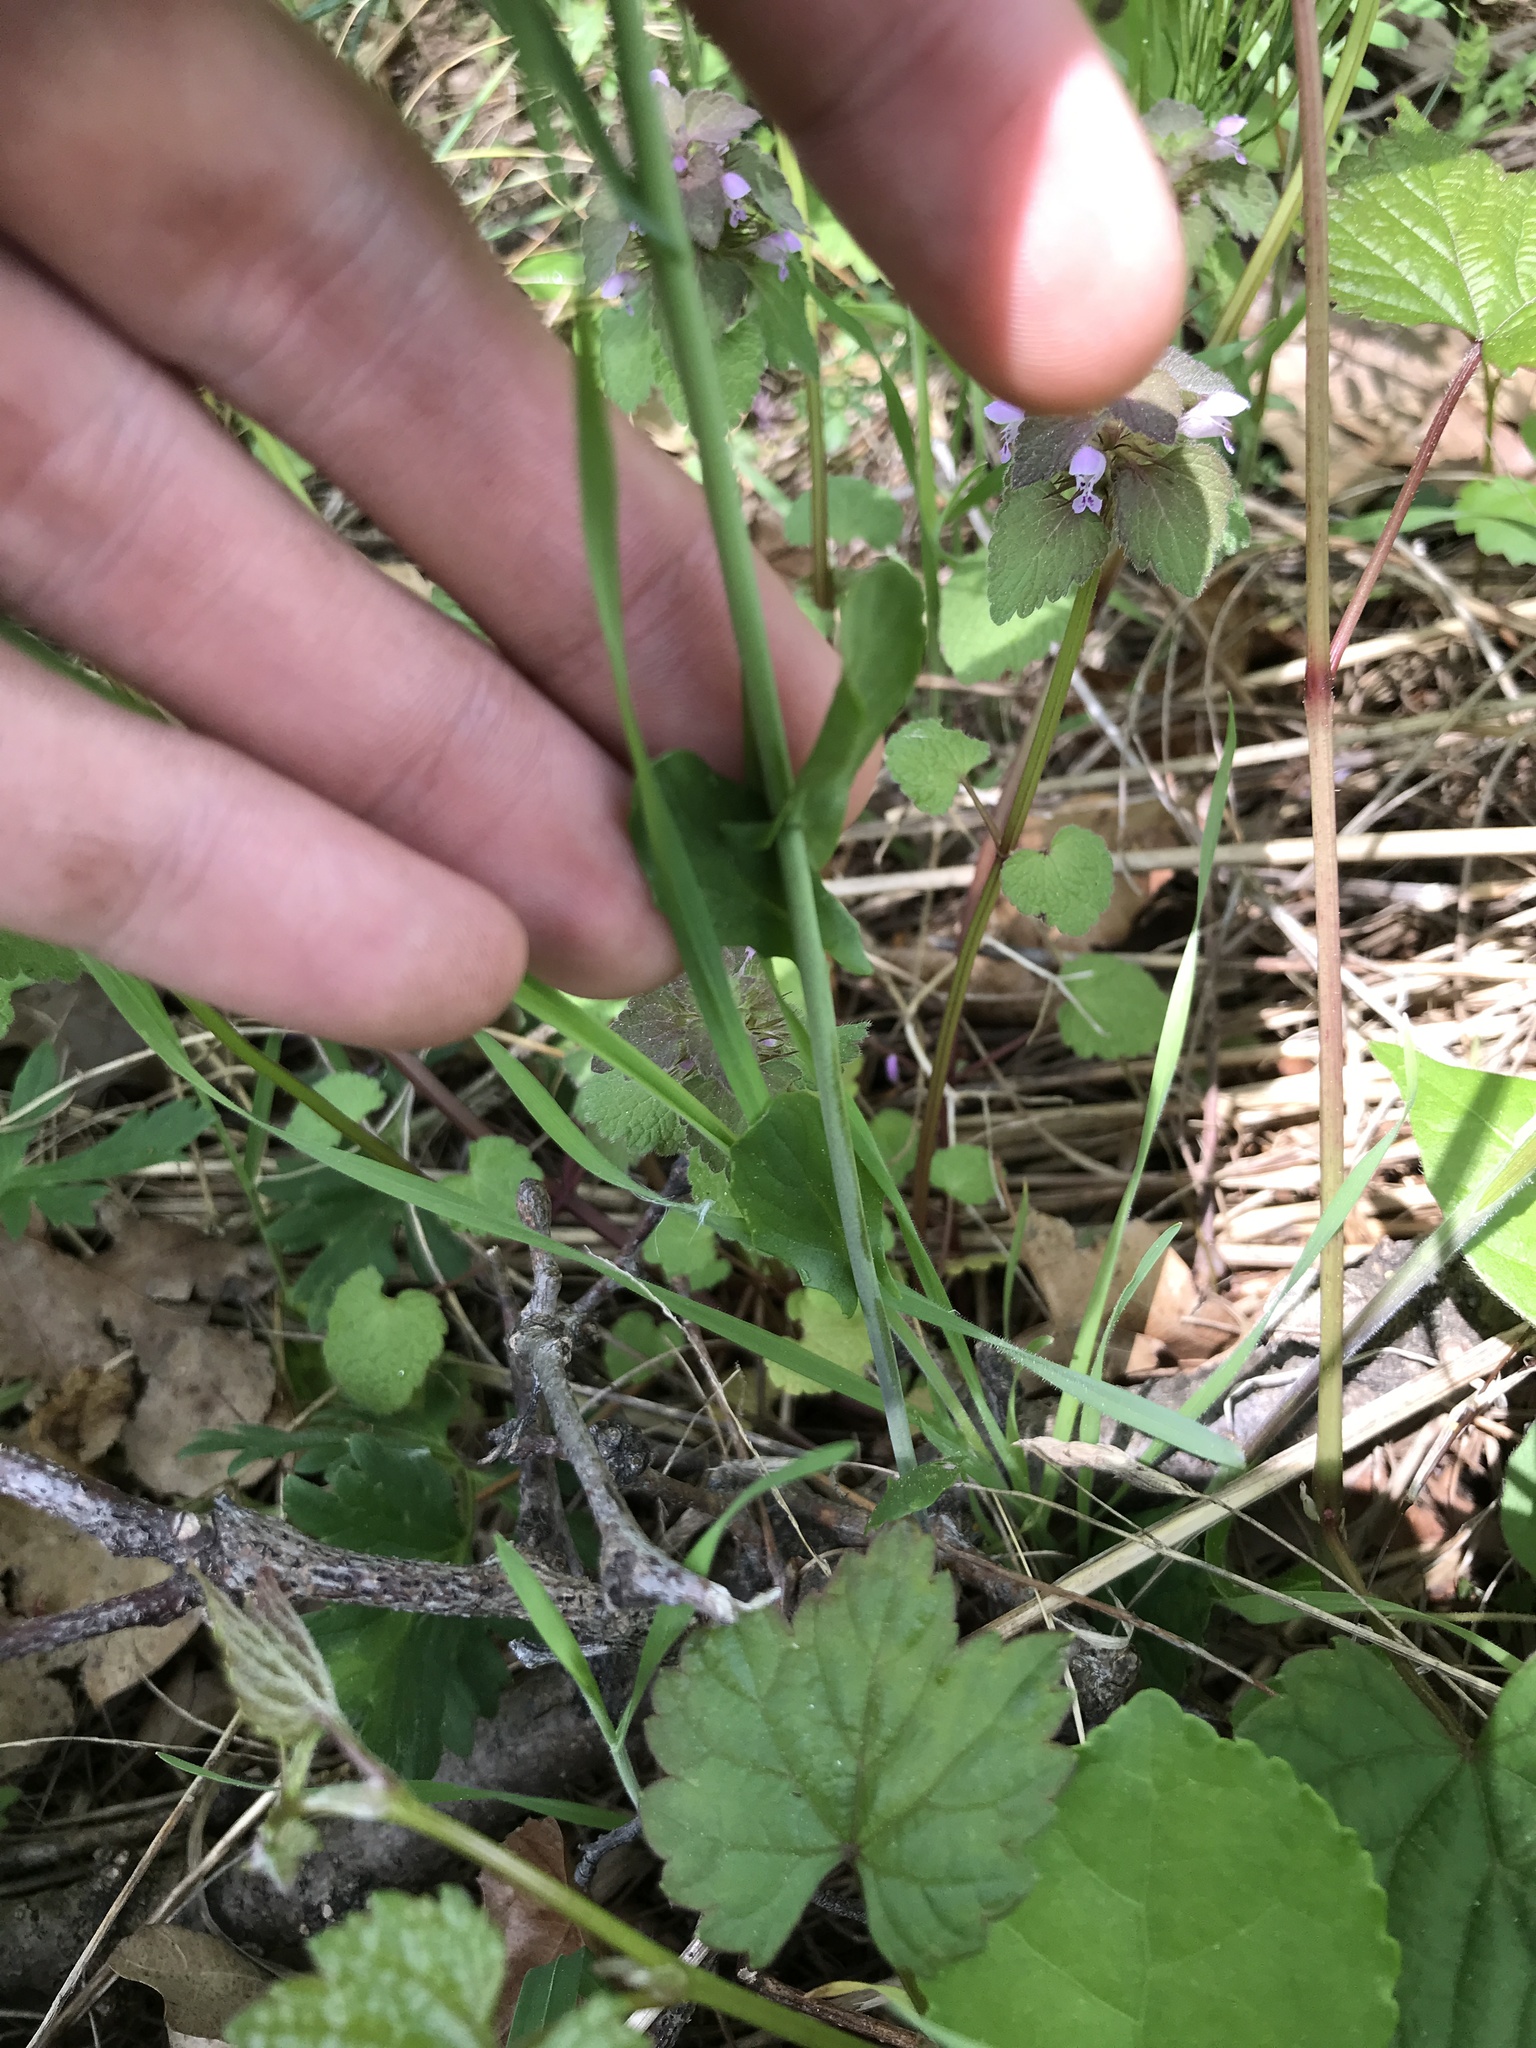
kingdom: Plantae
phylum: Tracheophyta
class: Magnoliopsida
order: Brassicales
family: Brassicaceae
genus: Mummenhoffia
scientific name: Mummenhoffia alliacea
